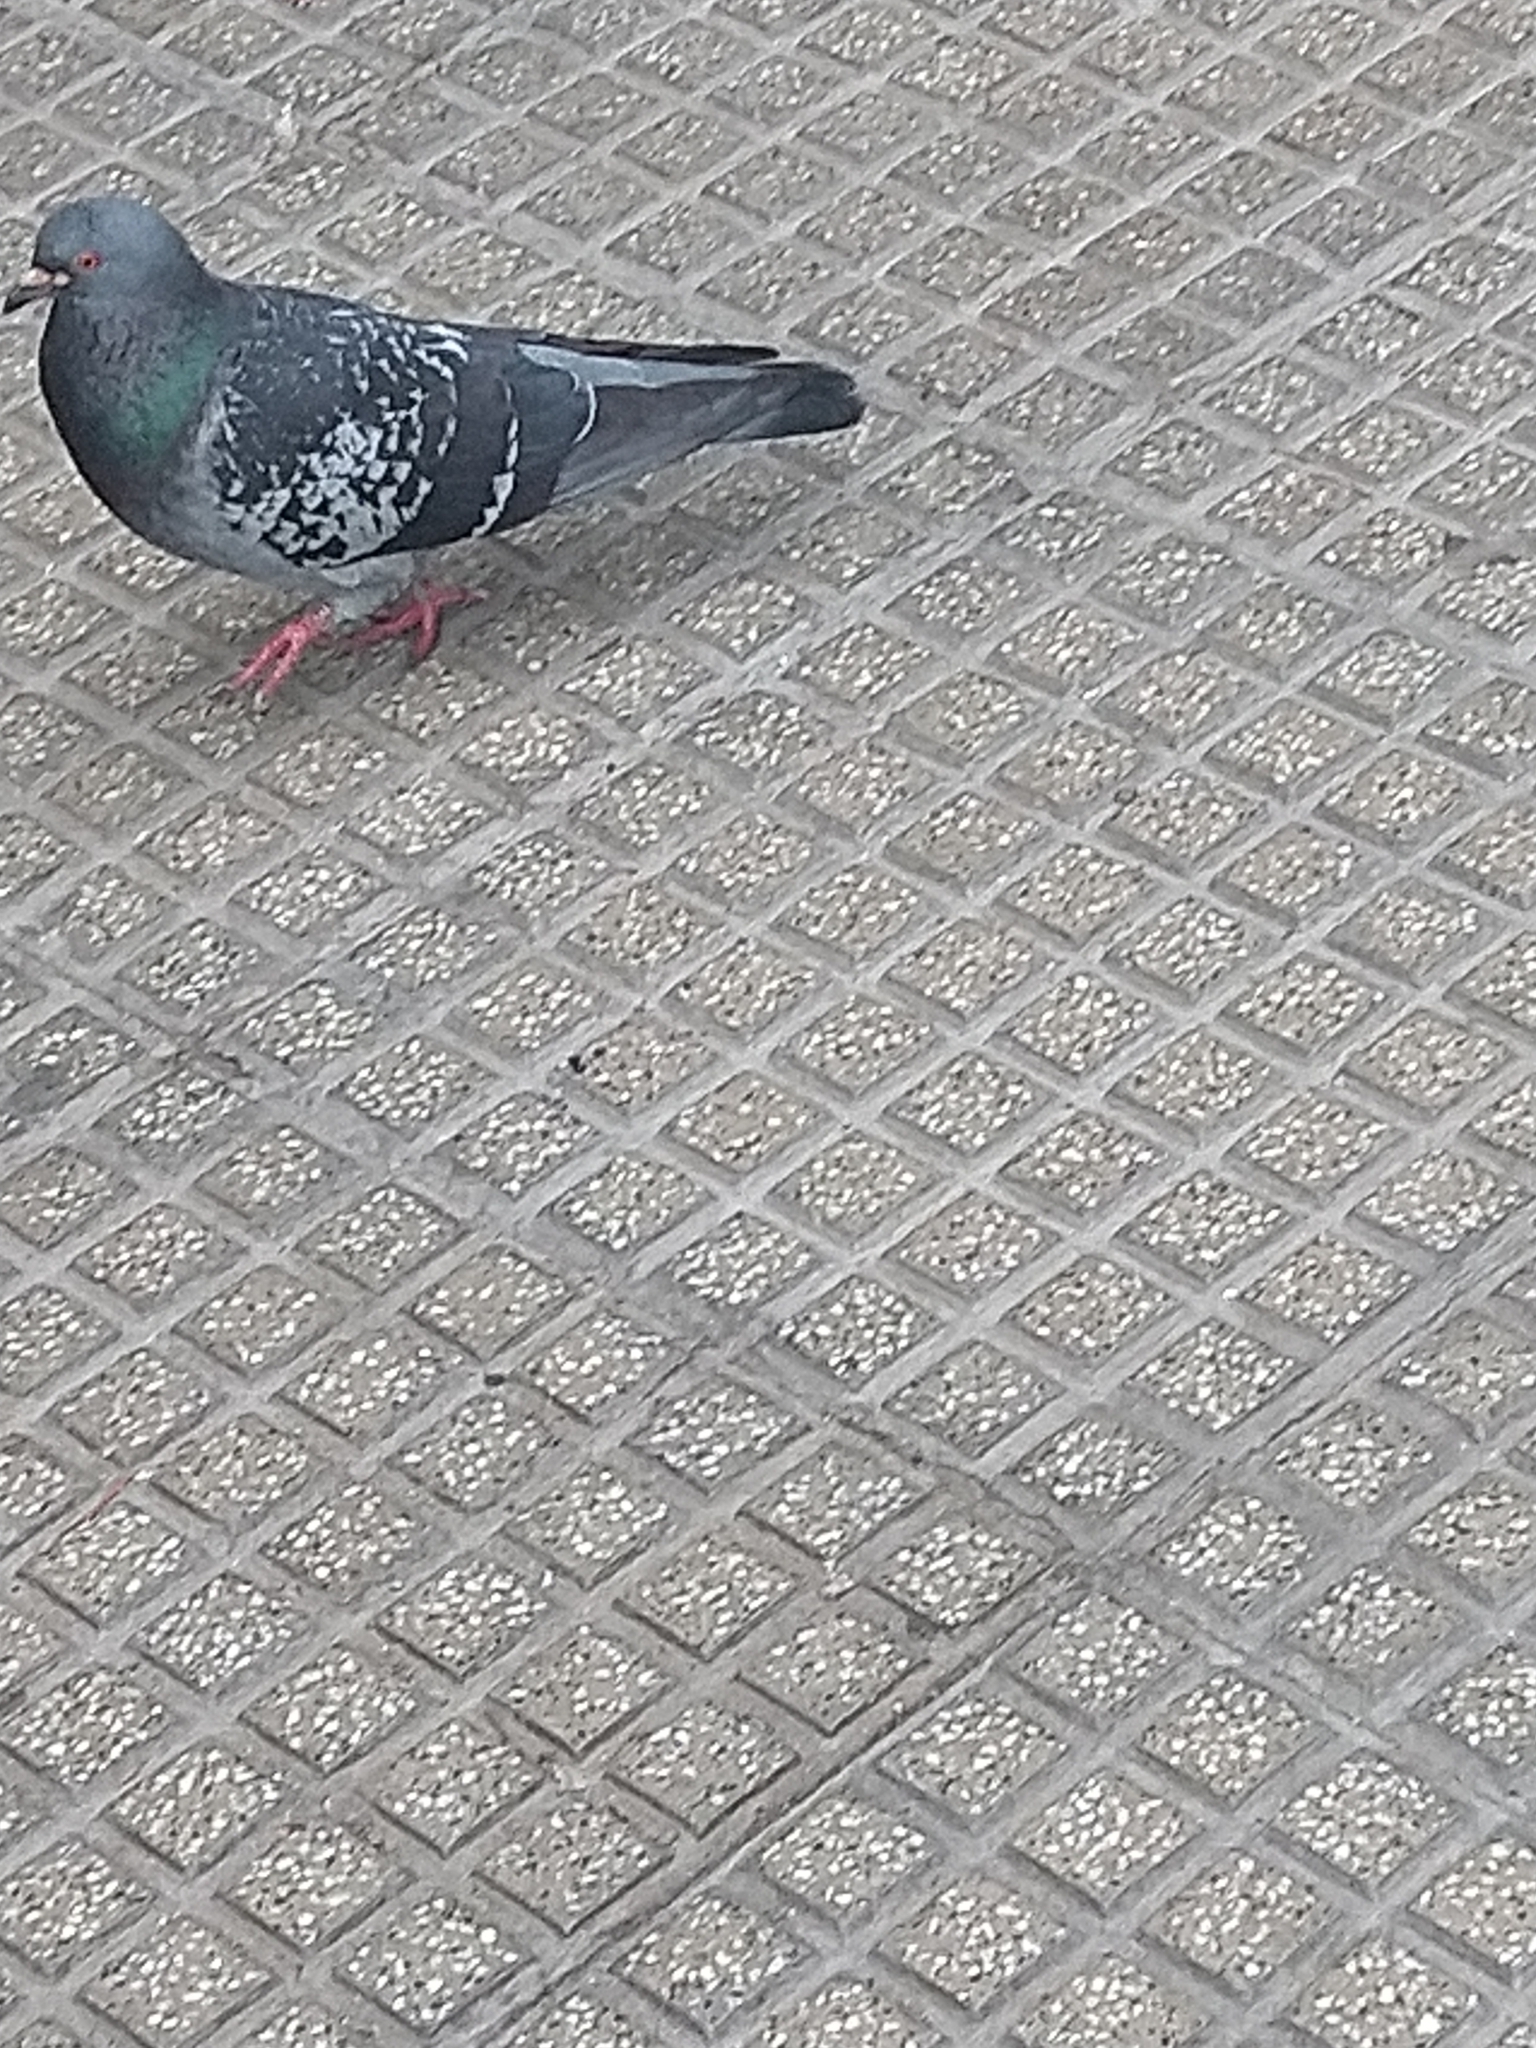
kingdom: Animalia
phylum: Chordata
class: Aves
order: Columbiformes
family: Columbidae
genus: Columba
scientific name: Columba livia
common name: Rock pigeon
